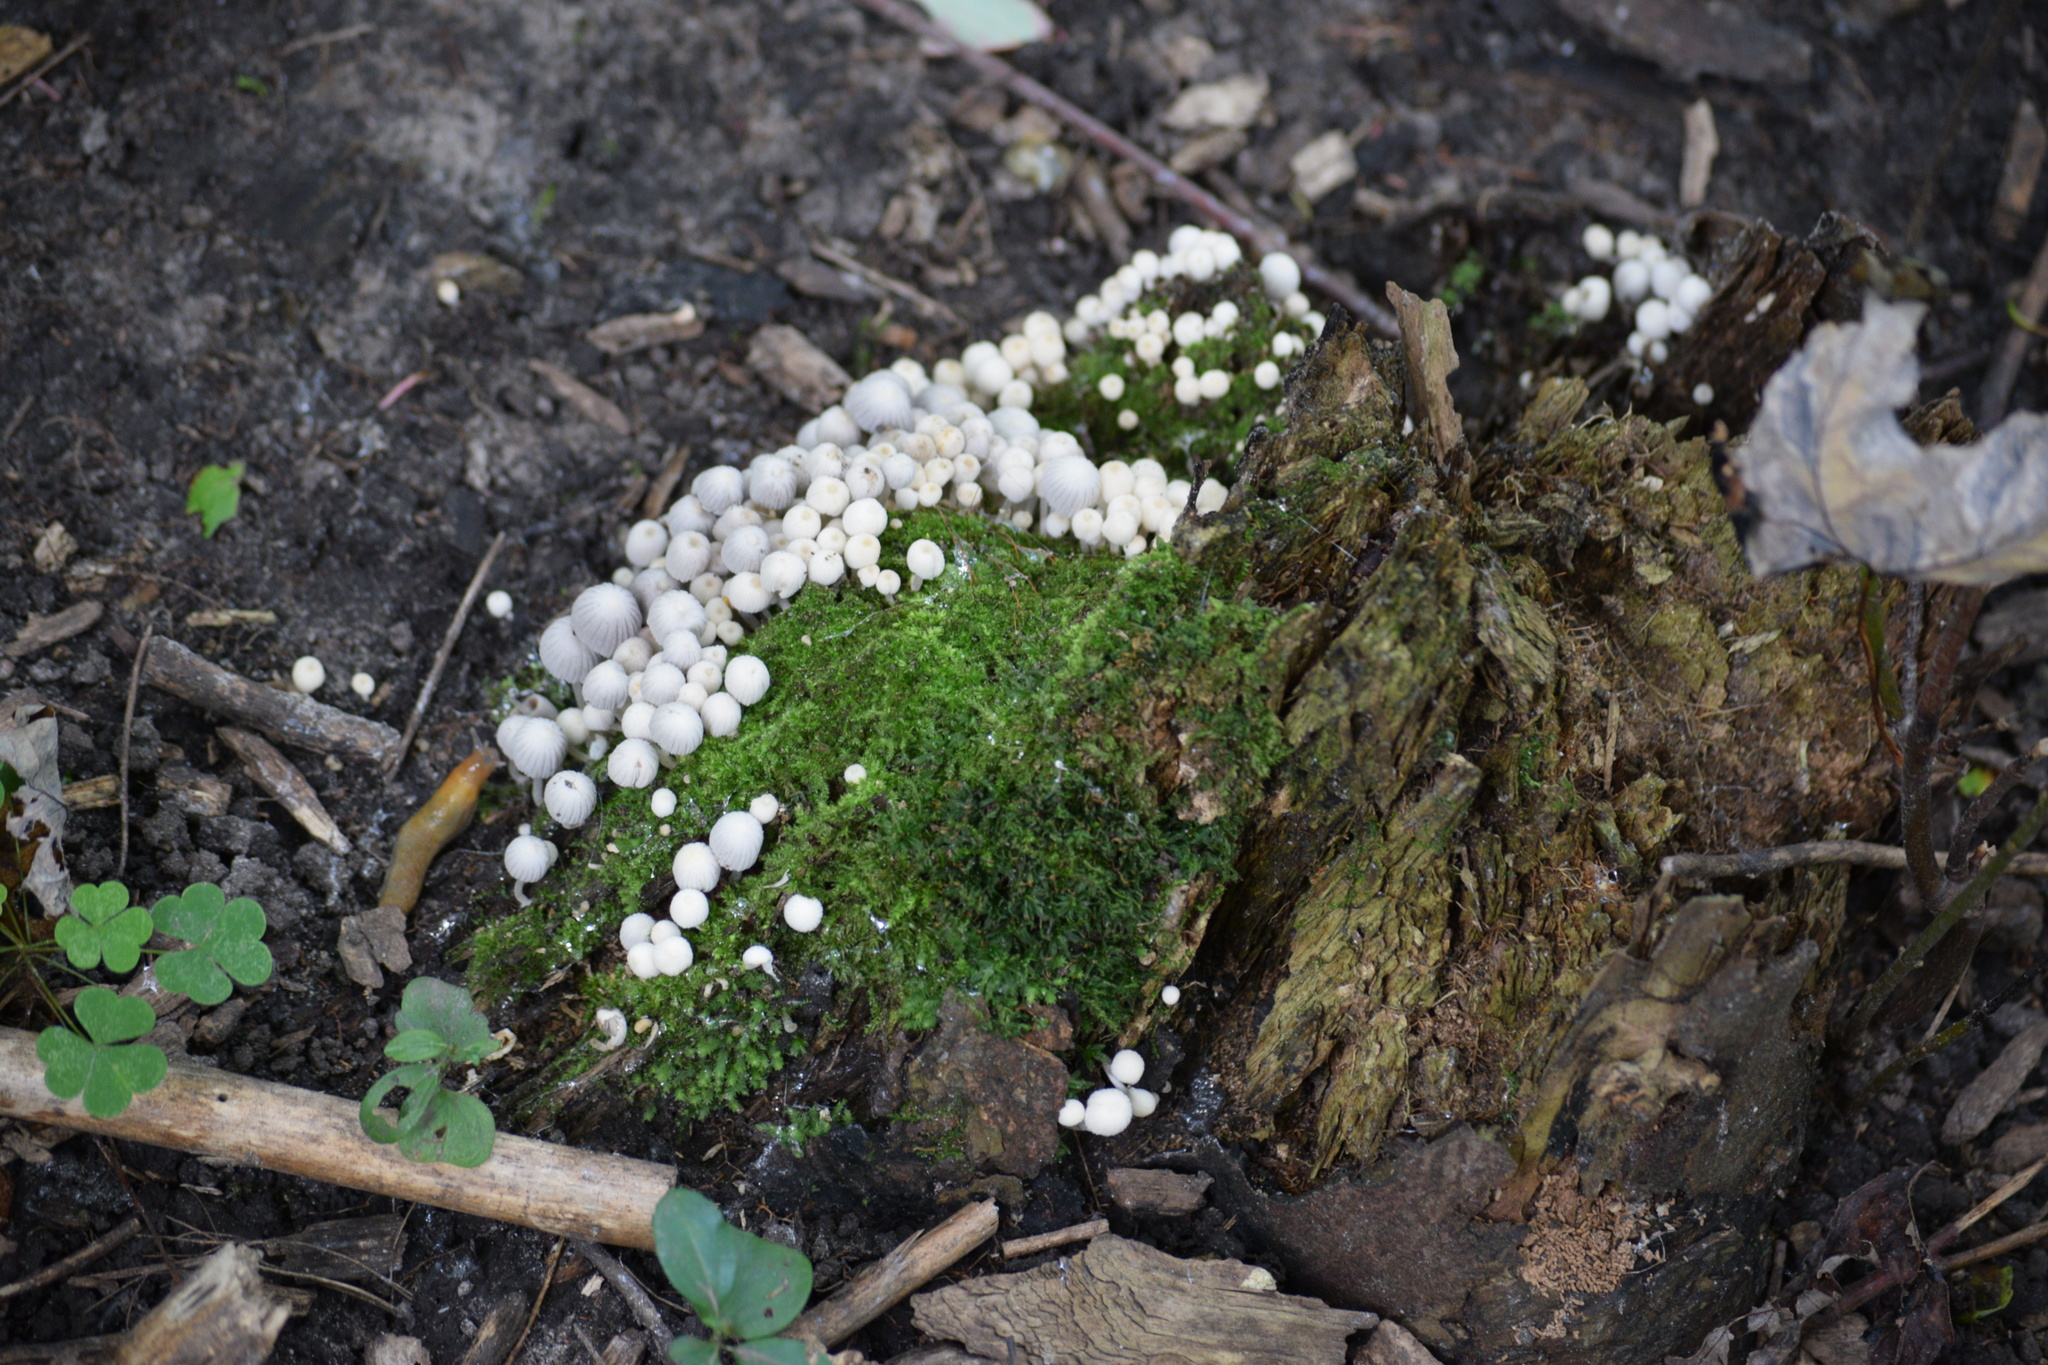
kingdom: Fungi
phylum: Basidiomycota
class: Agaricomycetes
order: Agaricales
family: Psathyrellaceae
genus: Coprinellus
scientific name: Coprinellus disseminatus
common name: Fairies' bonnets
